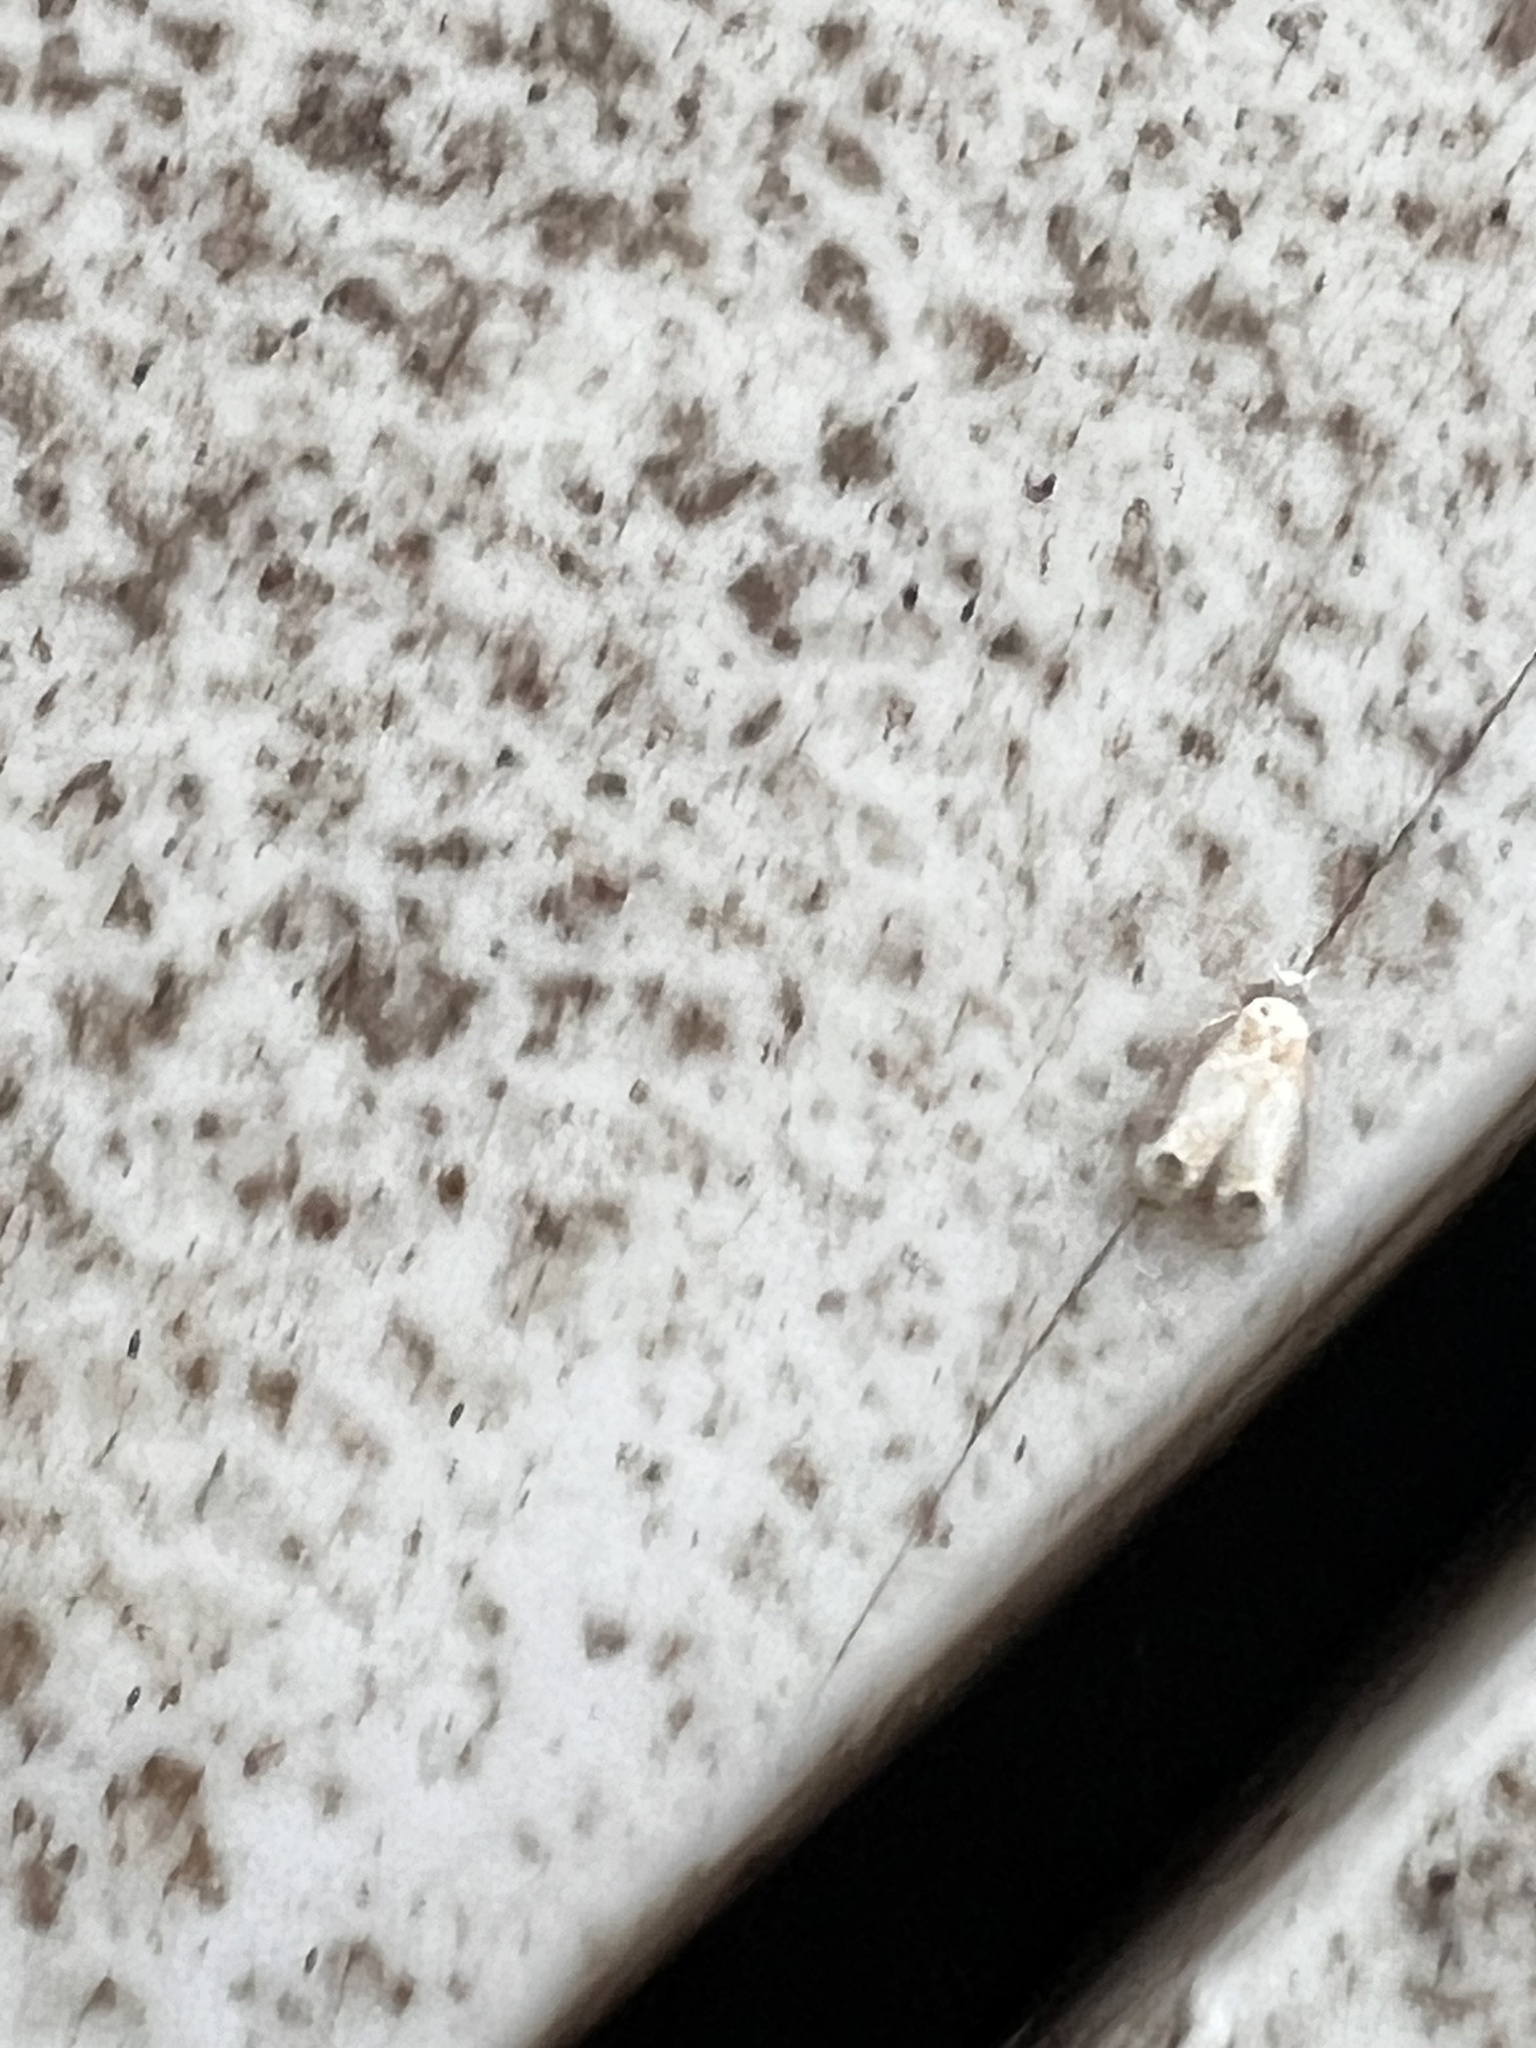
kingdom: Animalia
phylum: Arthropoda
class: Insecta
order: Lepidoptera
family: Dryadaulidae
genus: Dryadaula
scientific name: Dryadaula terpsichorella
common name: Dancing moth
